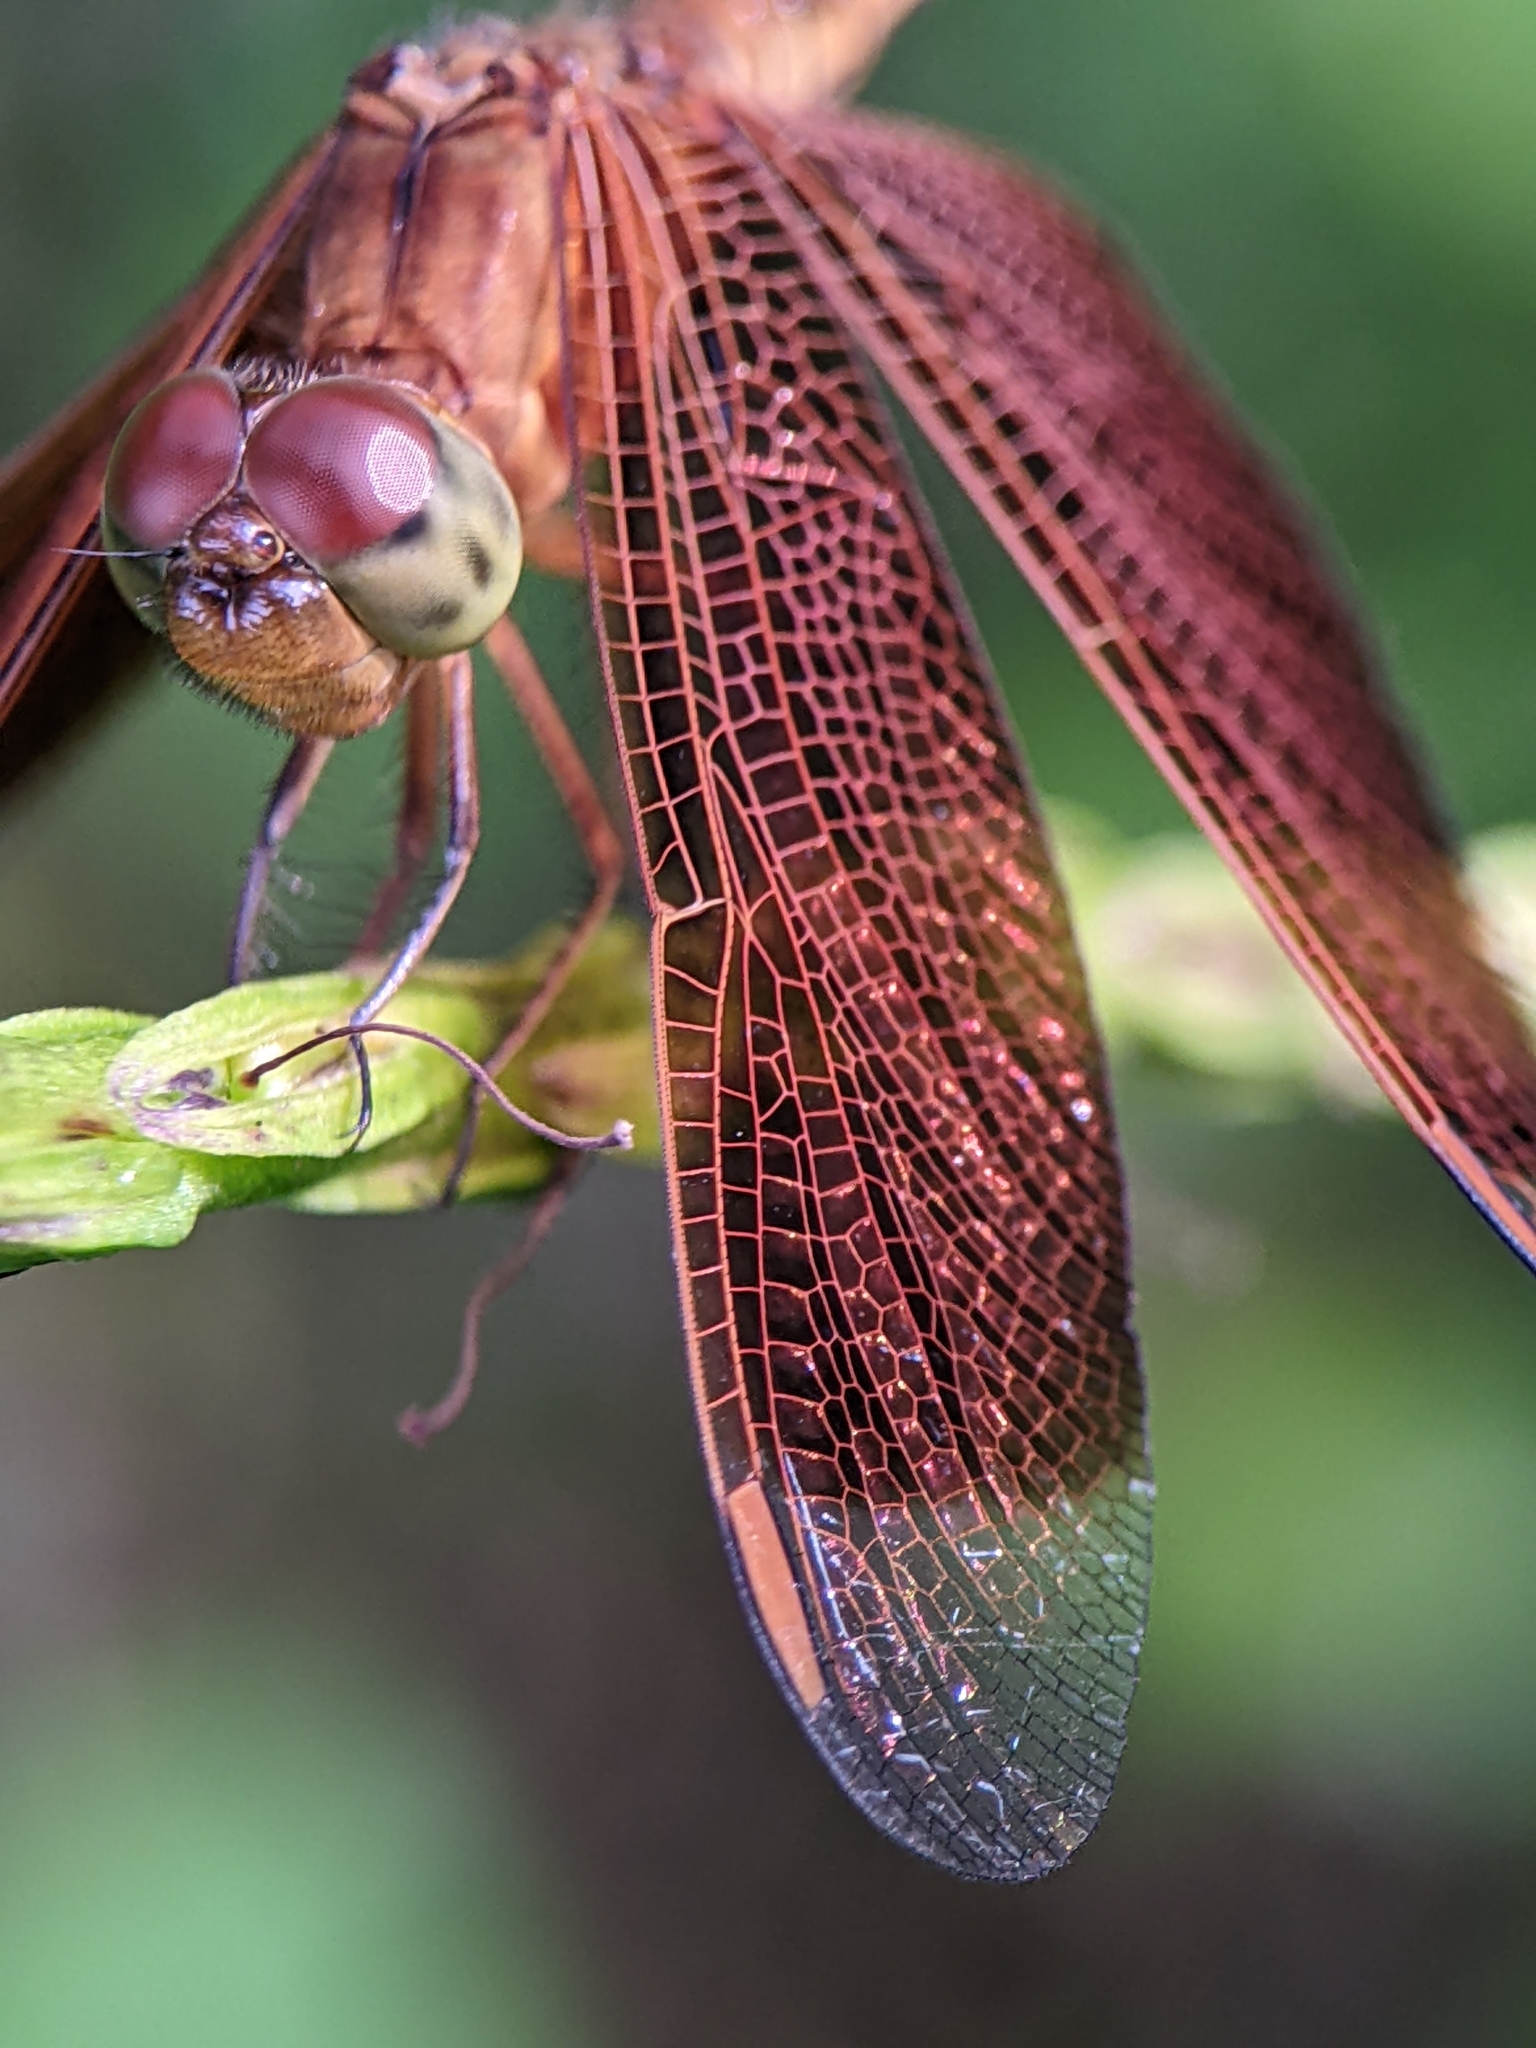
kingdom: Animalia
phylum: Arthropoda
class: Insecta
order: Odonata
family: Libellulidae
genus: Neurothemis
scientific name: Neurothemis fluctuans
